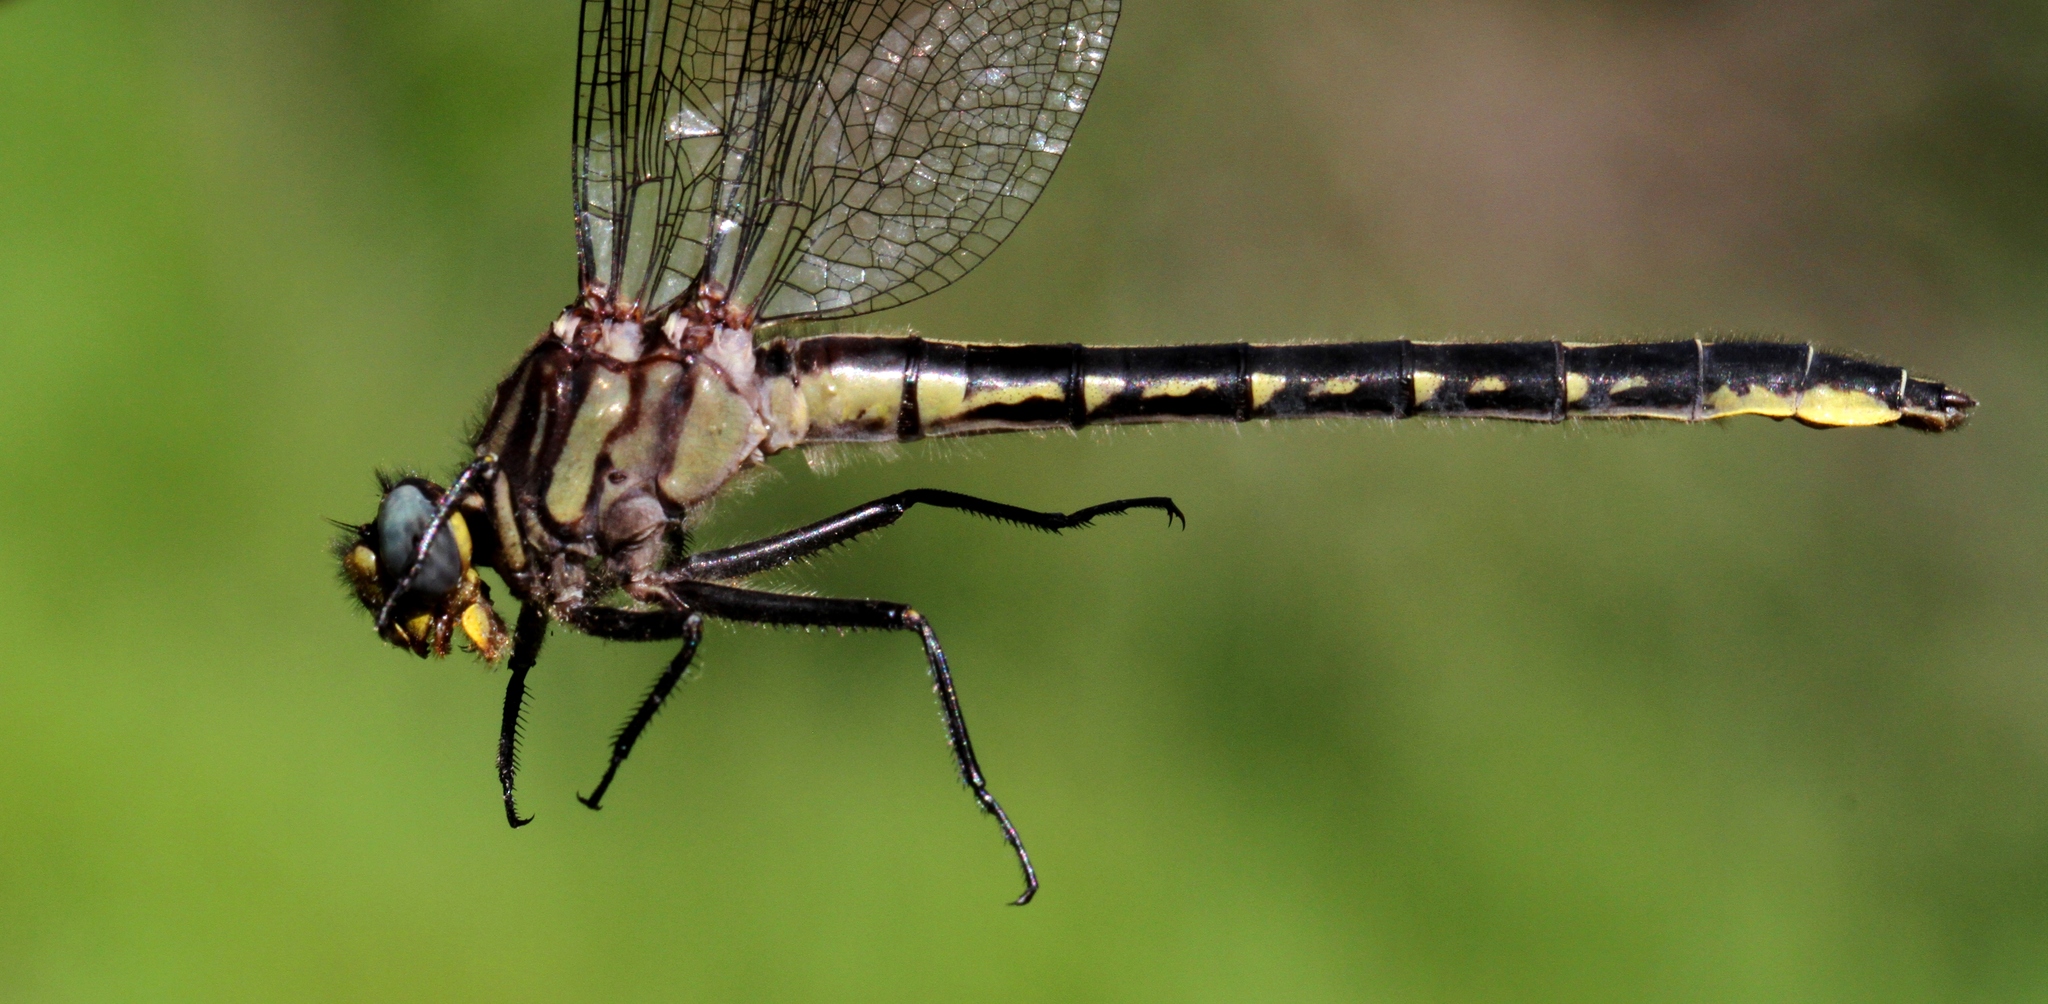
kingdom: Animalia
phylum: Arthropoda
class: Insecta
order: Odonata
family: Gomphidae
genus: Phanogomphus
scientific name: Phanogomphus borealis
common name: Beaverpond clubtail
